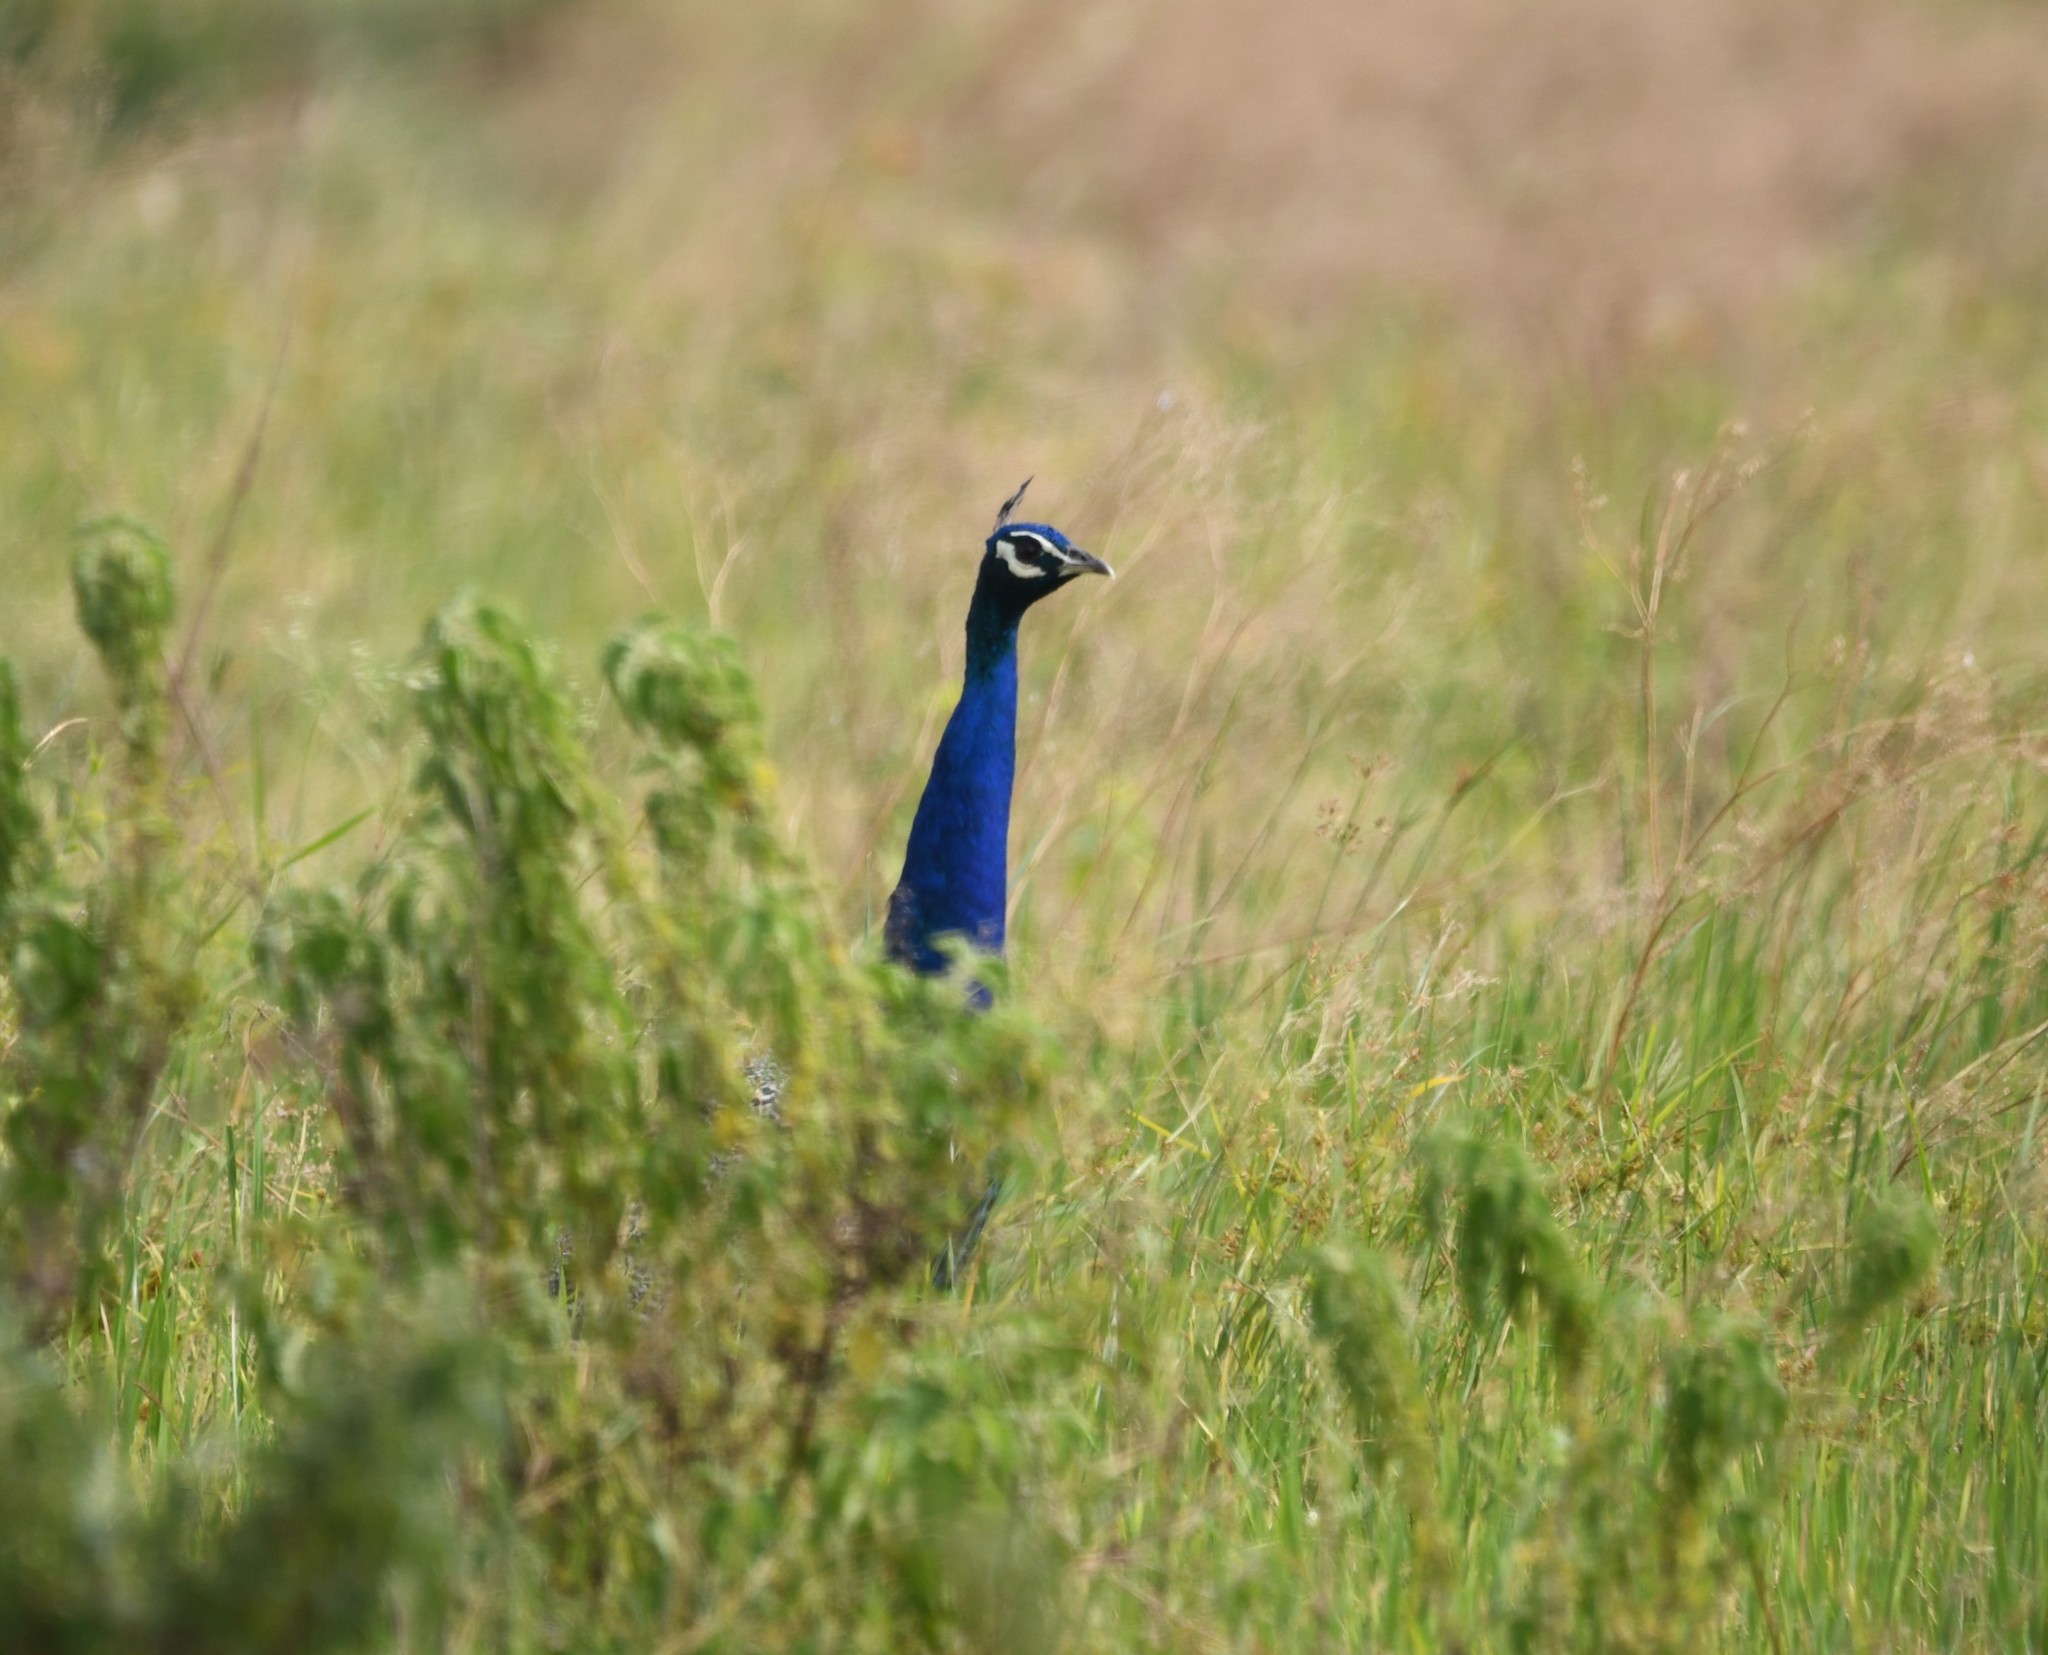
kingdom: Animalia
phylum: Chordata
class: Aves
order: Galliformes
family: Phasianidae
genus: Pavo
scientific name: Pavo cristatus
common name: Indian peafowl
